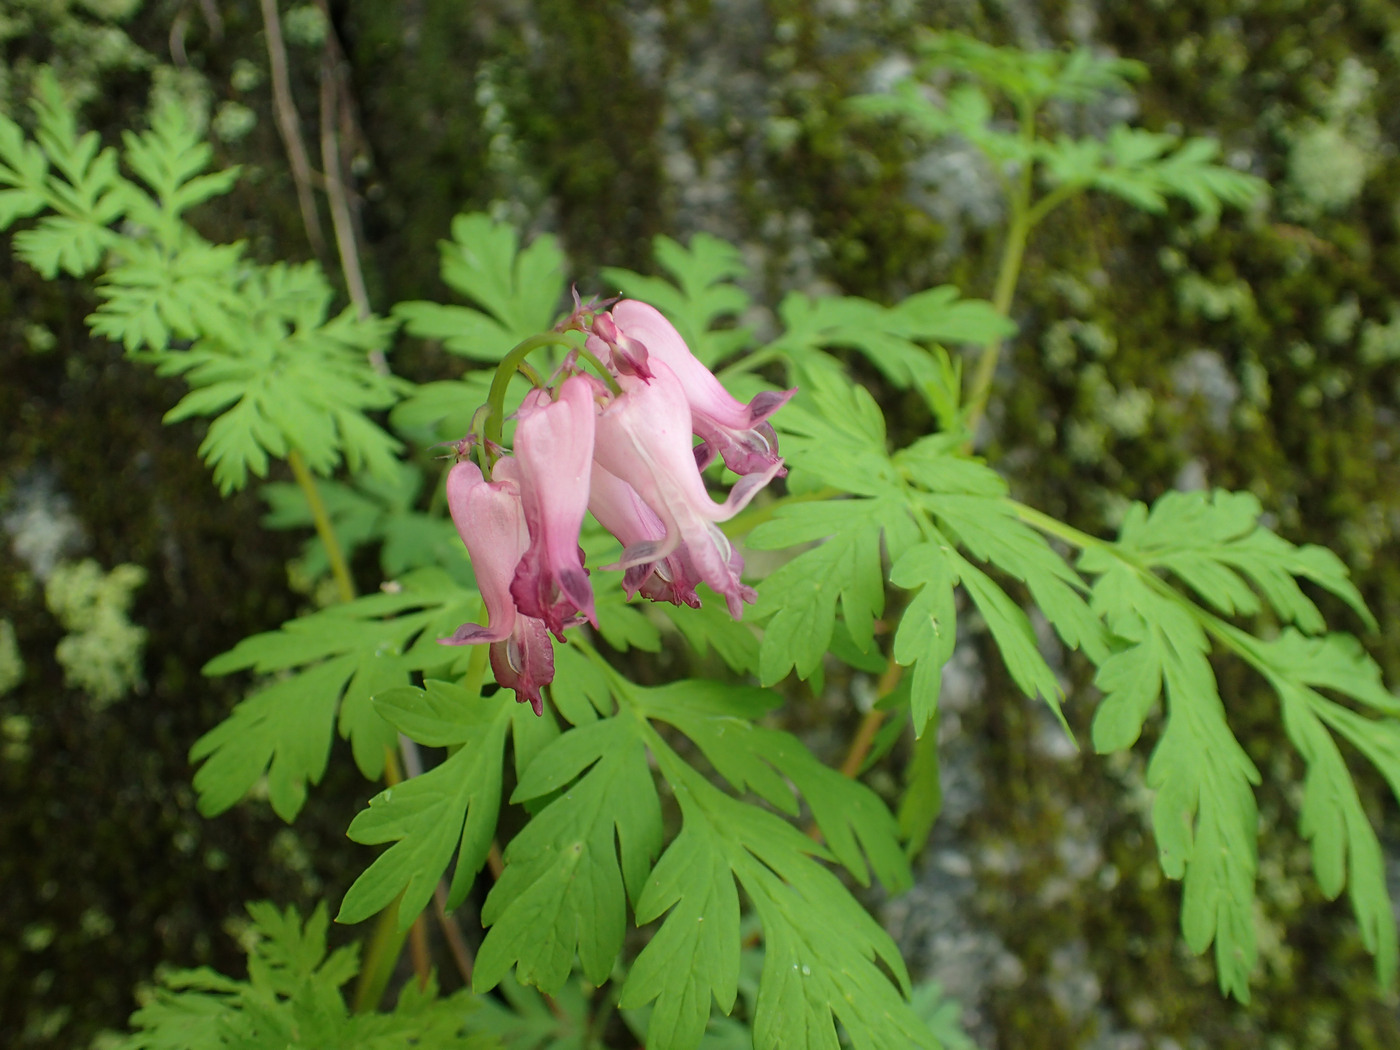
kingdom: Plantae
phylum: Tracheophyta
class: Magnoliopsida
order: Ranunculales
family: Papaveraceae
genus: Dicentra
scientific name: Dicentra eximia
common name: Turkey-corn
